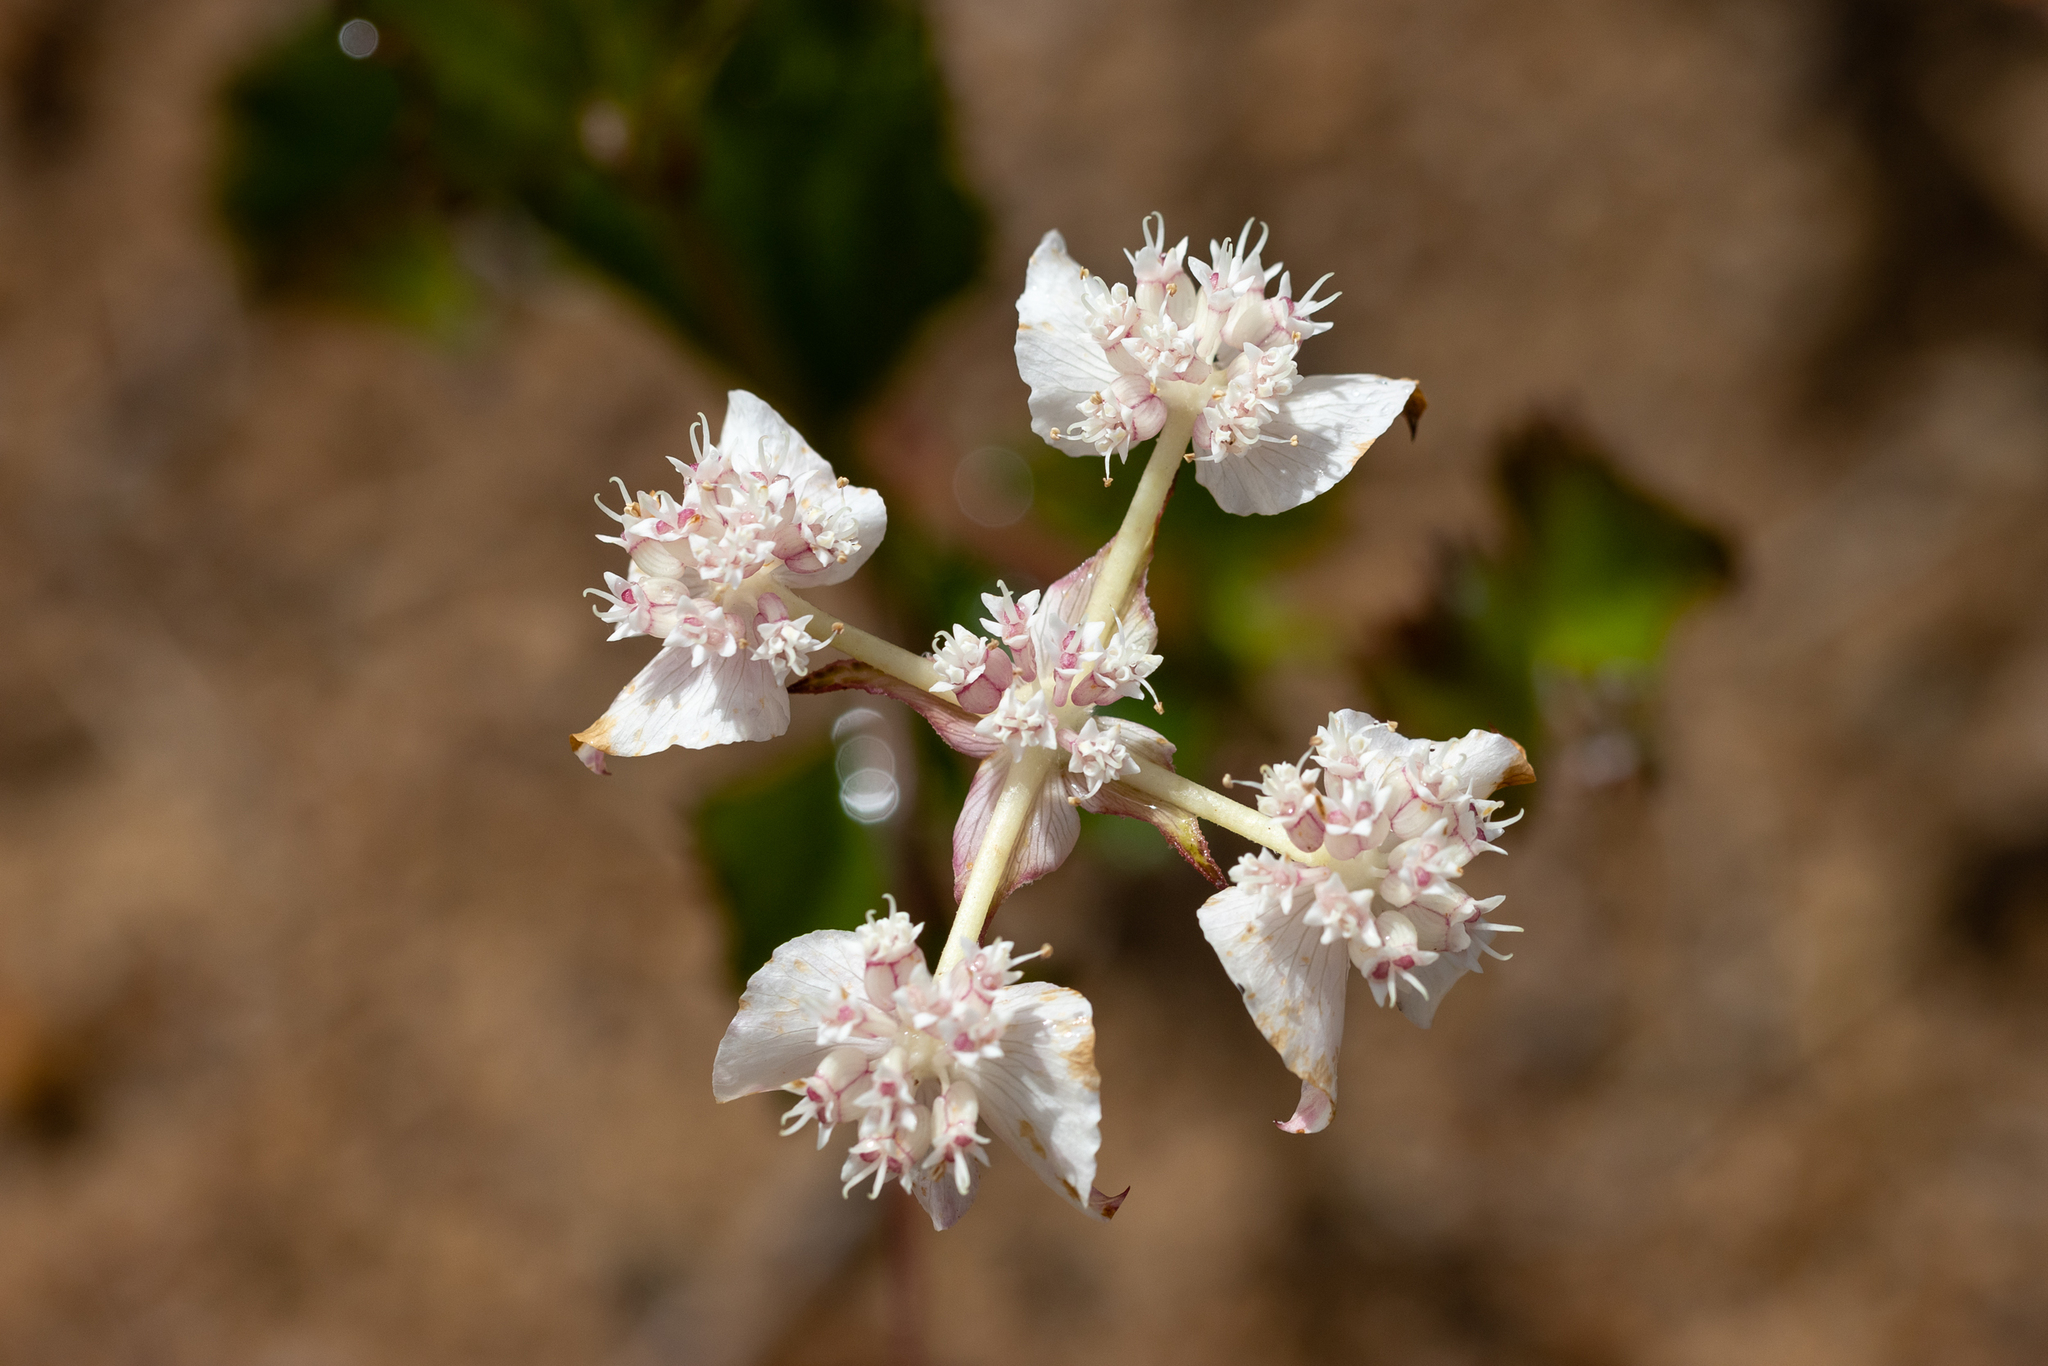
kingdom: Plantae
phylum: Tracheophyta
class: Magnoliopsida
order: Apiales
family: Apiaceae
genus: Xanthosia
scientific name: Xanthosia rotundifolia
